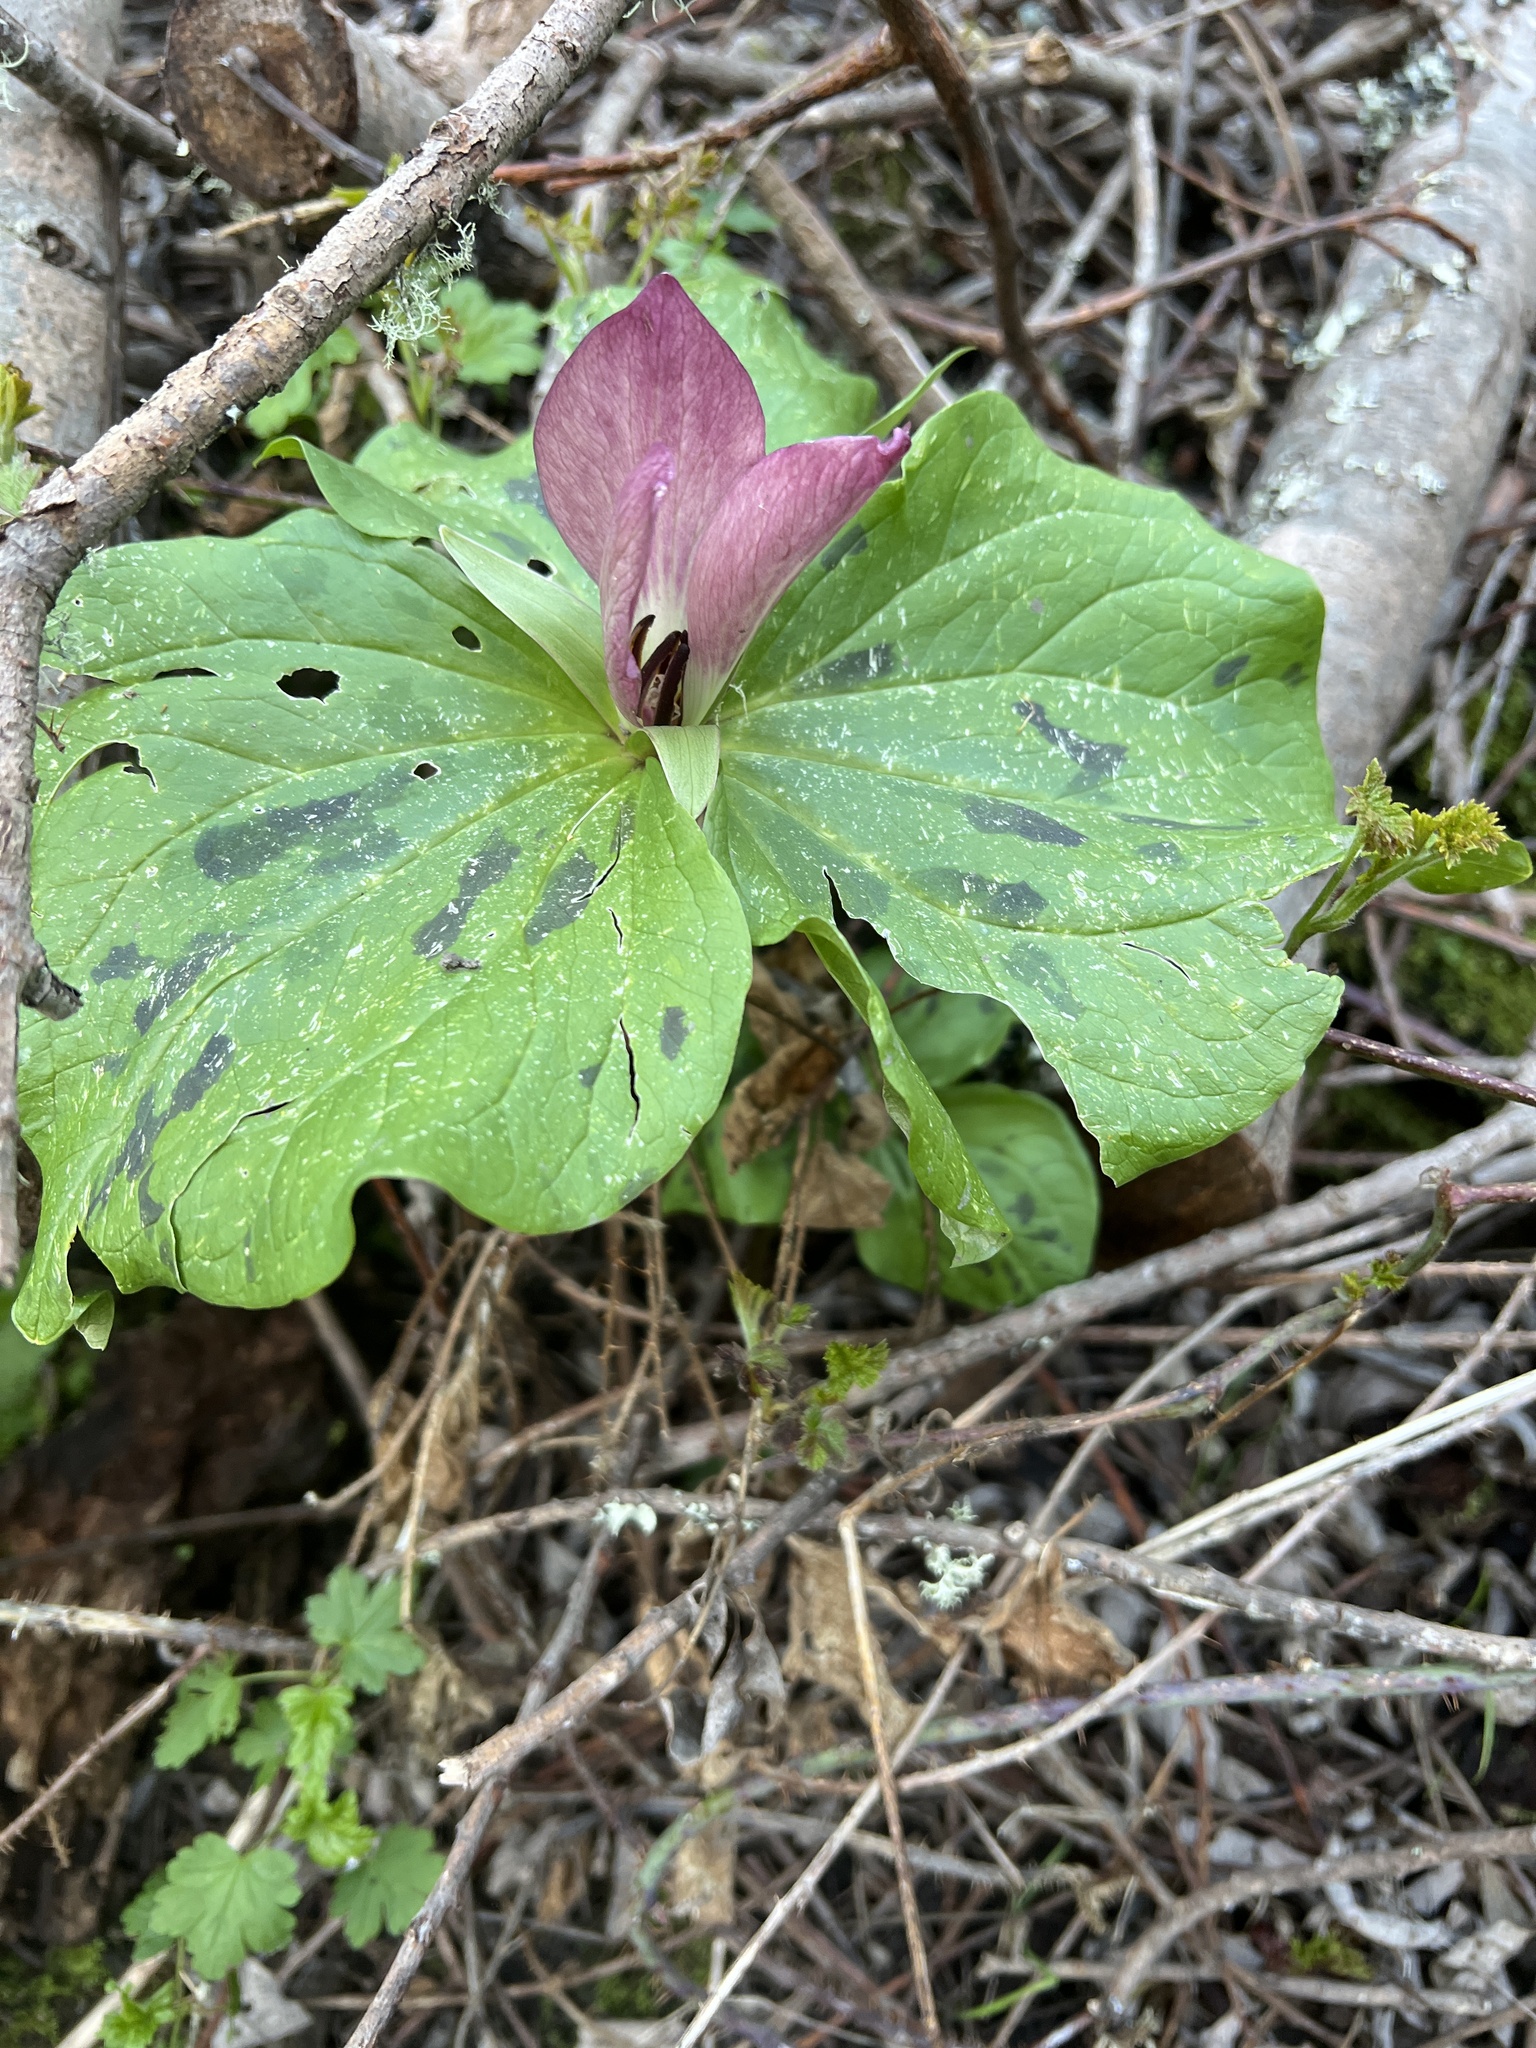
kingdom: Plantae
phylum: Tracheophyta
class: Liliopsida
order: Liliales
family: Melanthiaceae
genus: Trillium
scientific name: Trillium chloropetalum
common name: Giant trillium
